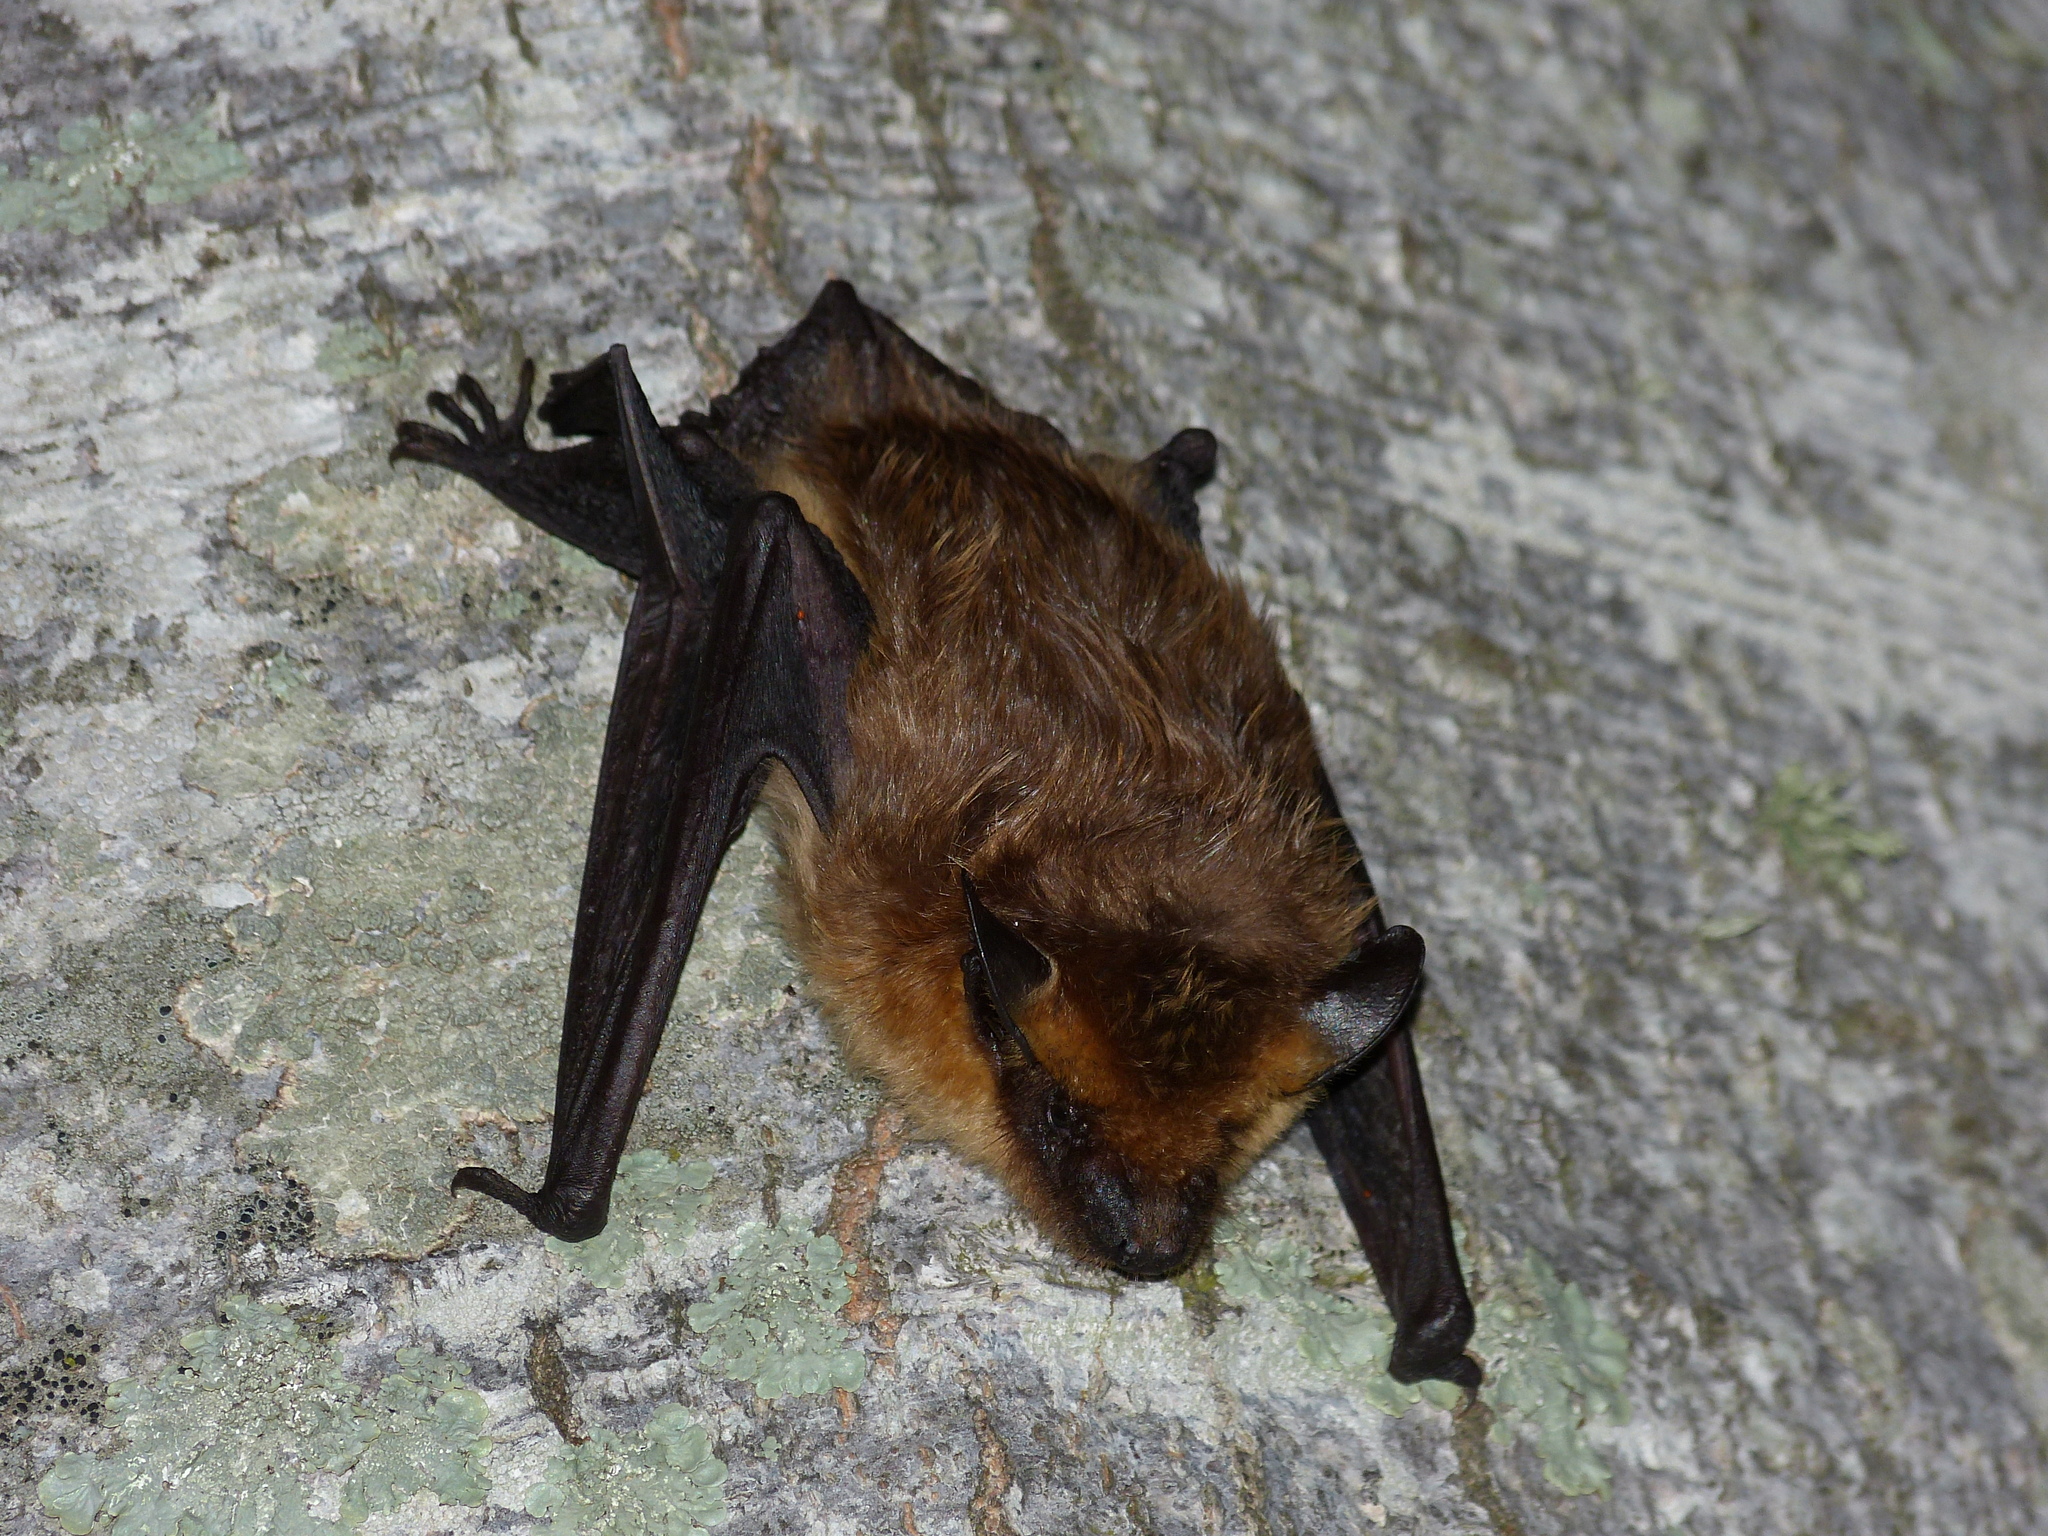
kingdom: Animalia
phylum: Chordata
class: Mammalia
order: Chiroptera
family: Vespertilionidae
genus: Eptesicus
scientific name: Eptesicus serotinus
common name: Serotine
